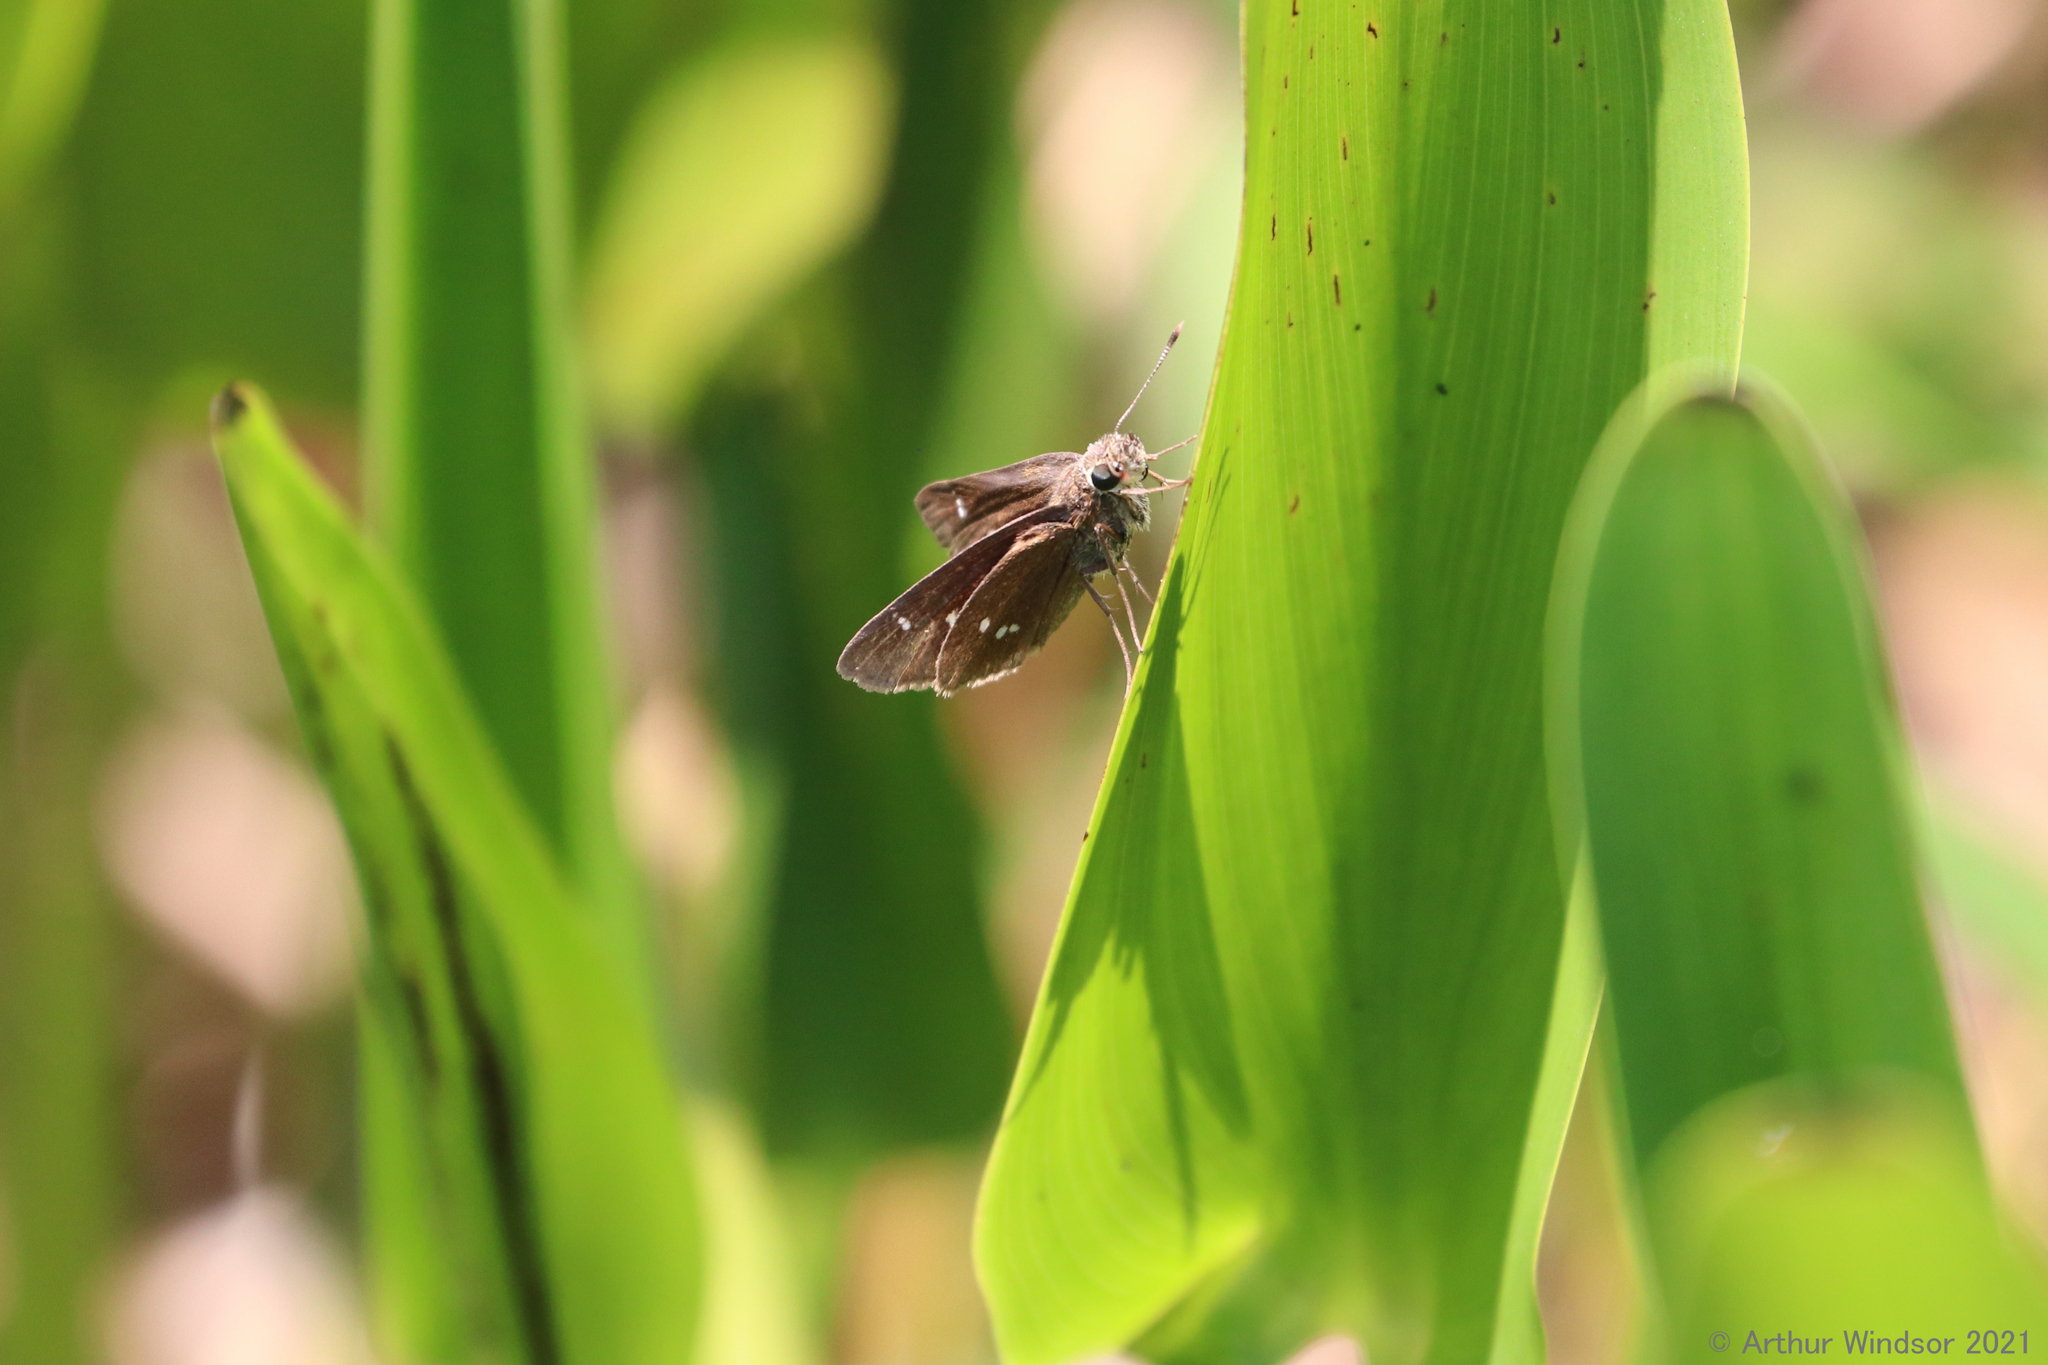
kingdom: Animalia
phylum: Arthropoda
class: Insecta
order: Lepidoptera
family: Hesperiidae
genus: Oligoria
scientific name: Oligoria maculata
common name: Twin-spot skipper
